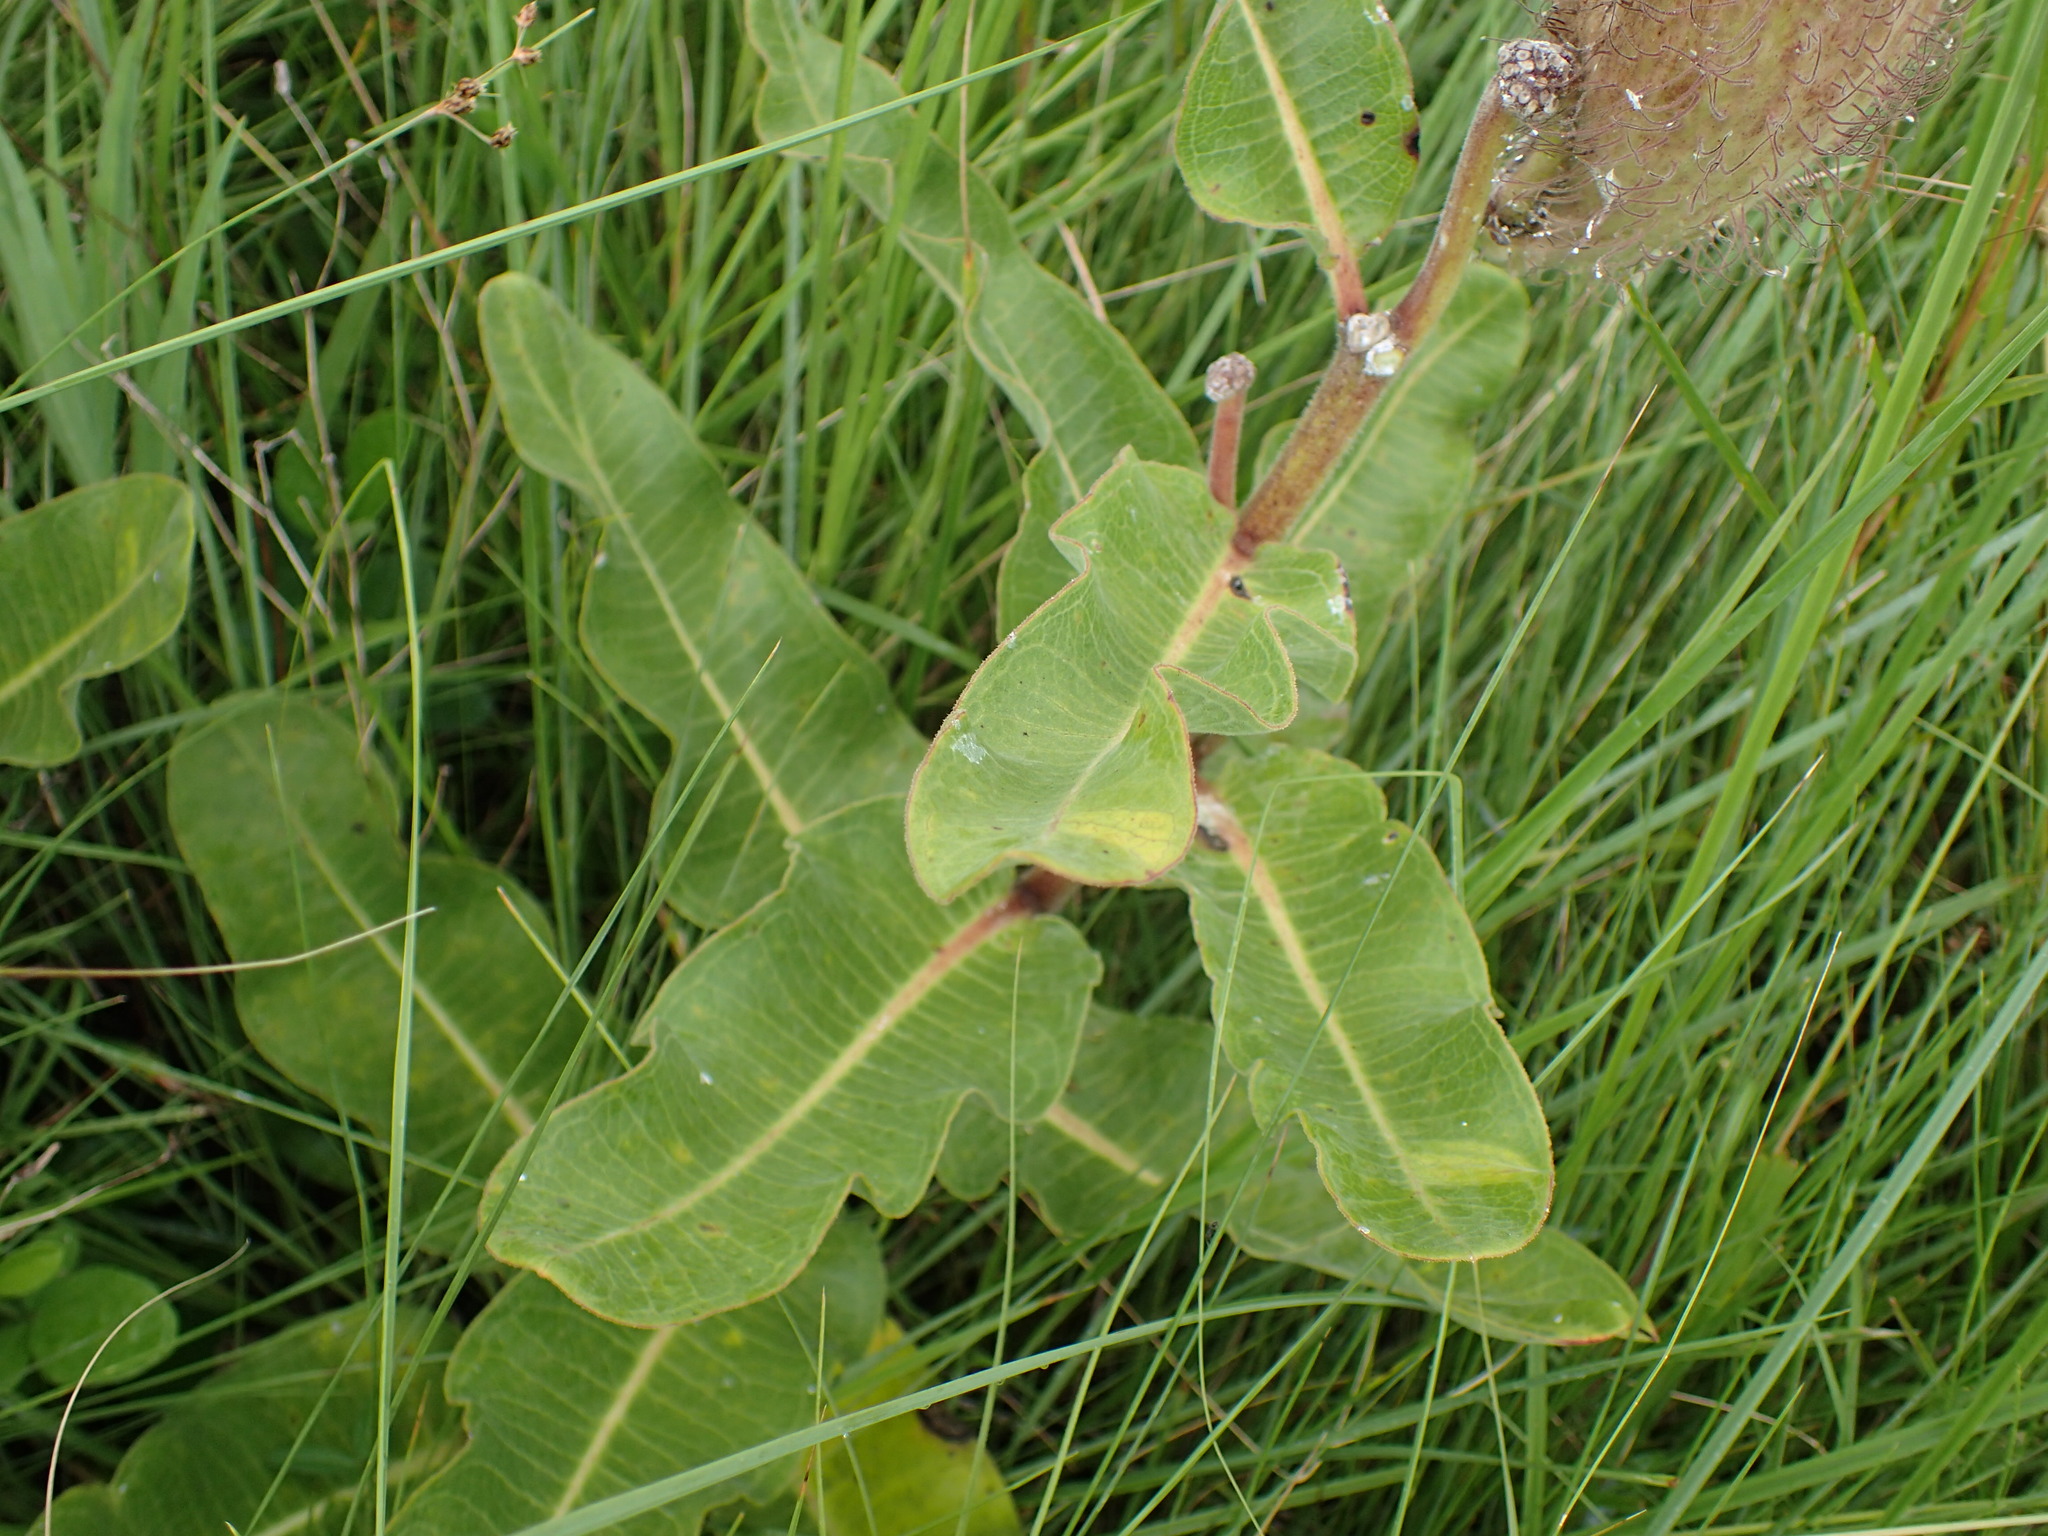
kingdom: Plantae
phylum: Tracheophyta
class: Magnoliopsida
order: Gentianales
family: Apocynaceae
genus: Xysmalobium
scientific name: Xysmalobium undulatum
